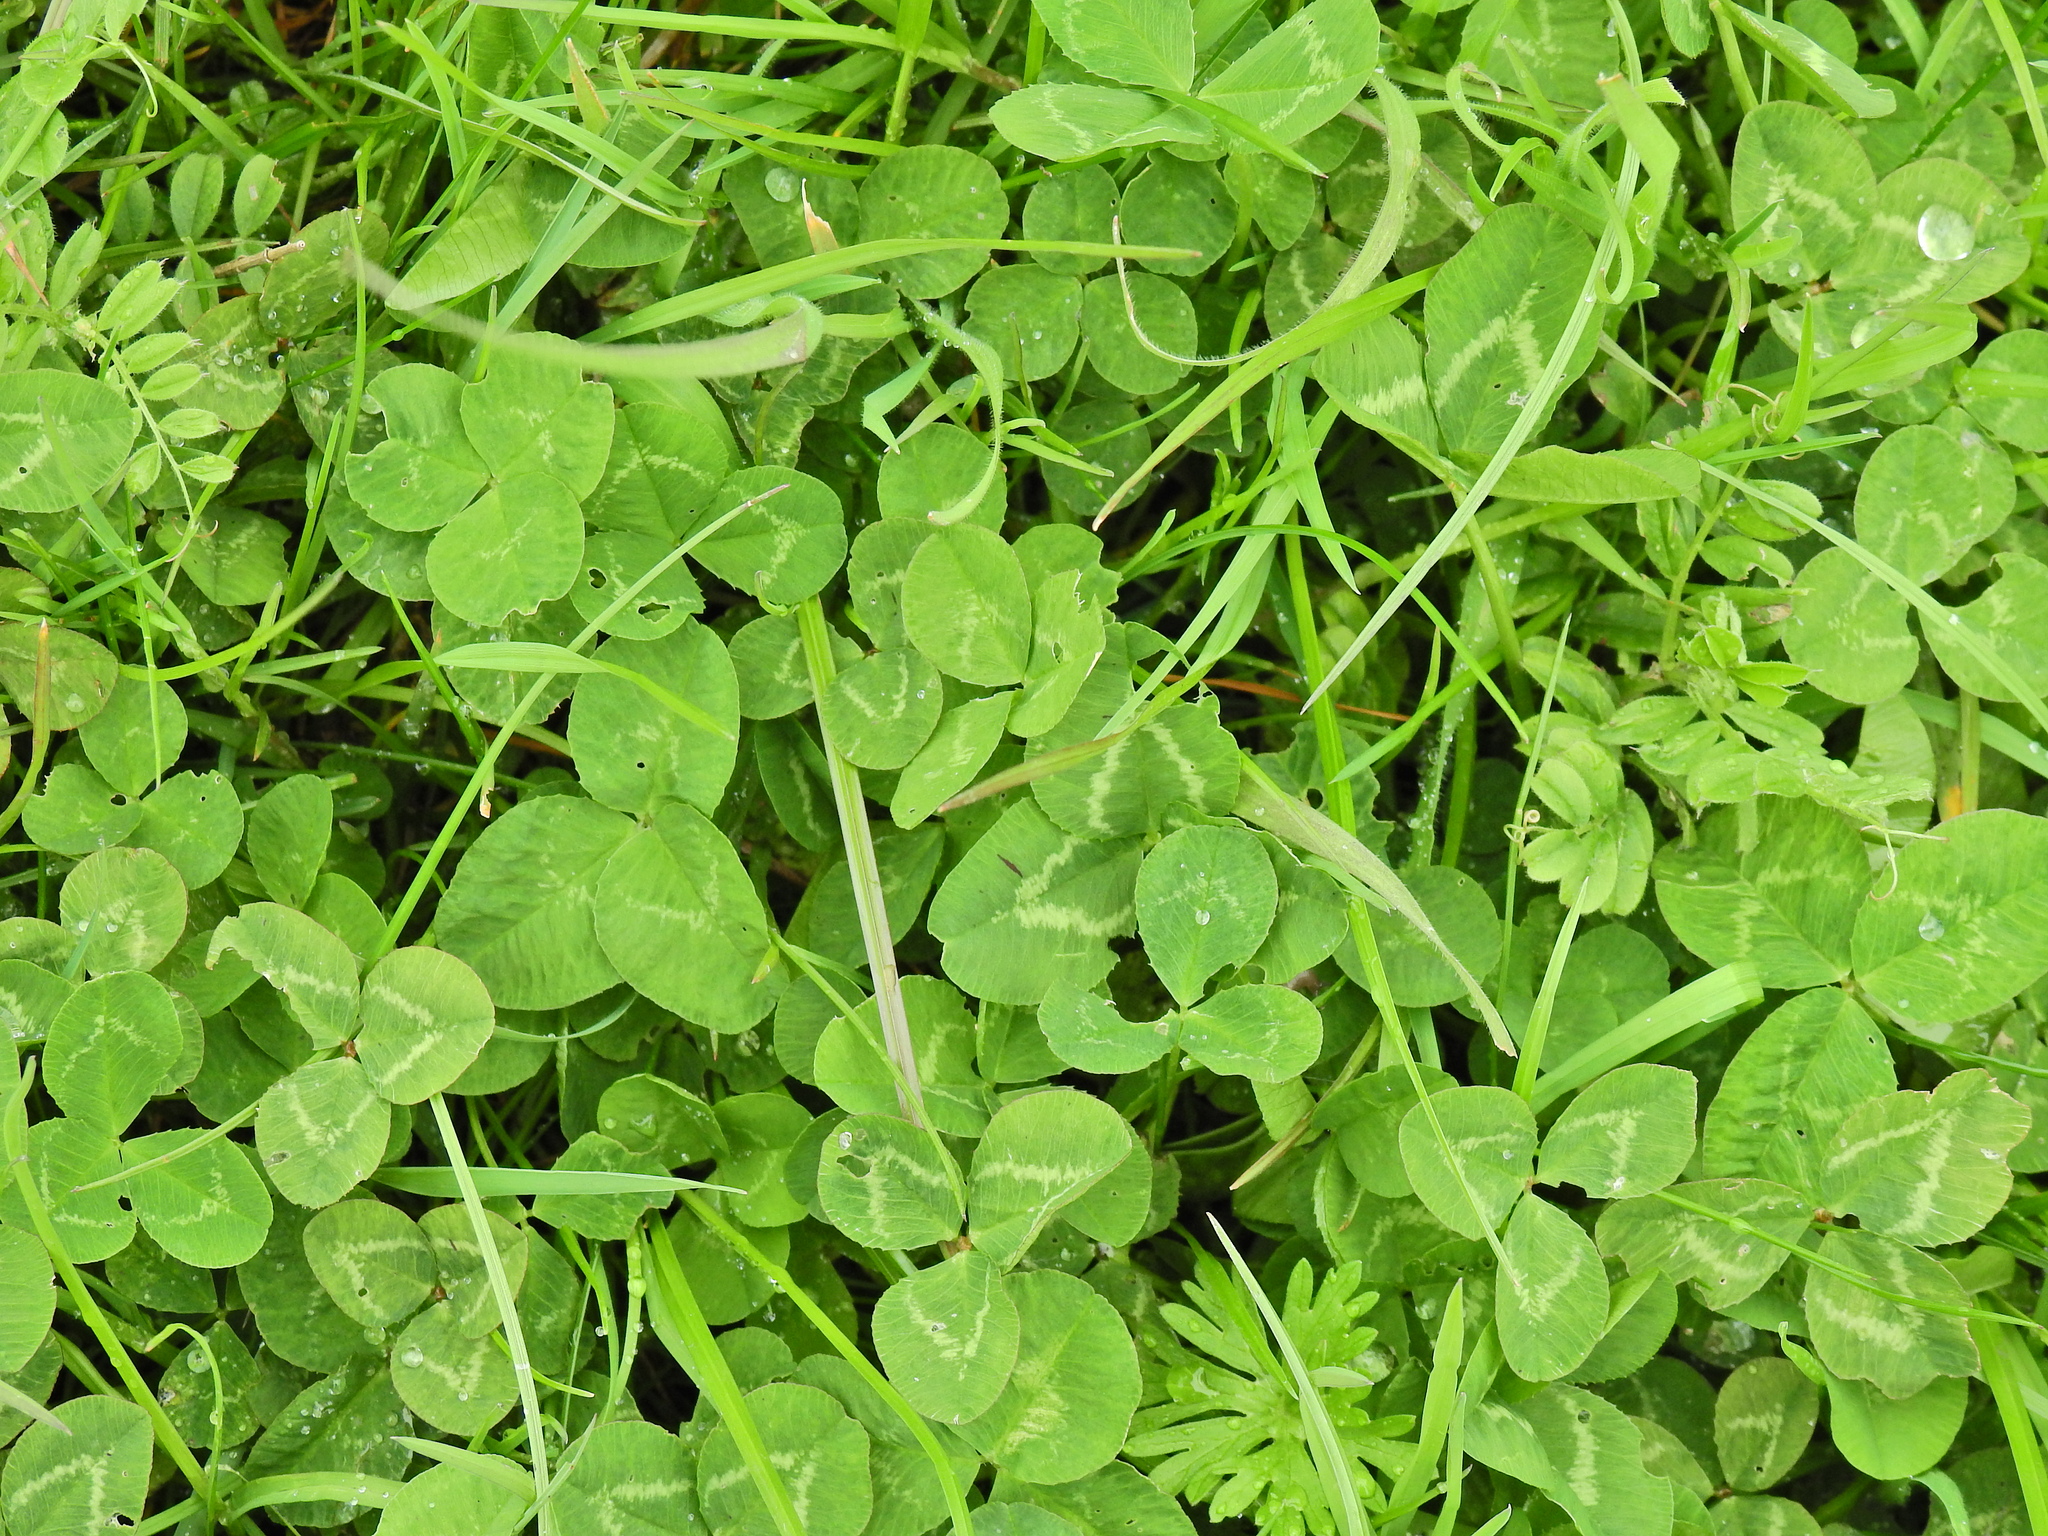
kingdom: Plantae
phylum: Tracheophyta
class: Magnoliopsida
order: Fabales
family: Fabaceae
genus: Trifolium
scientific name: Trifolium repens
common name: White clover
